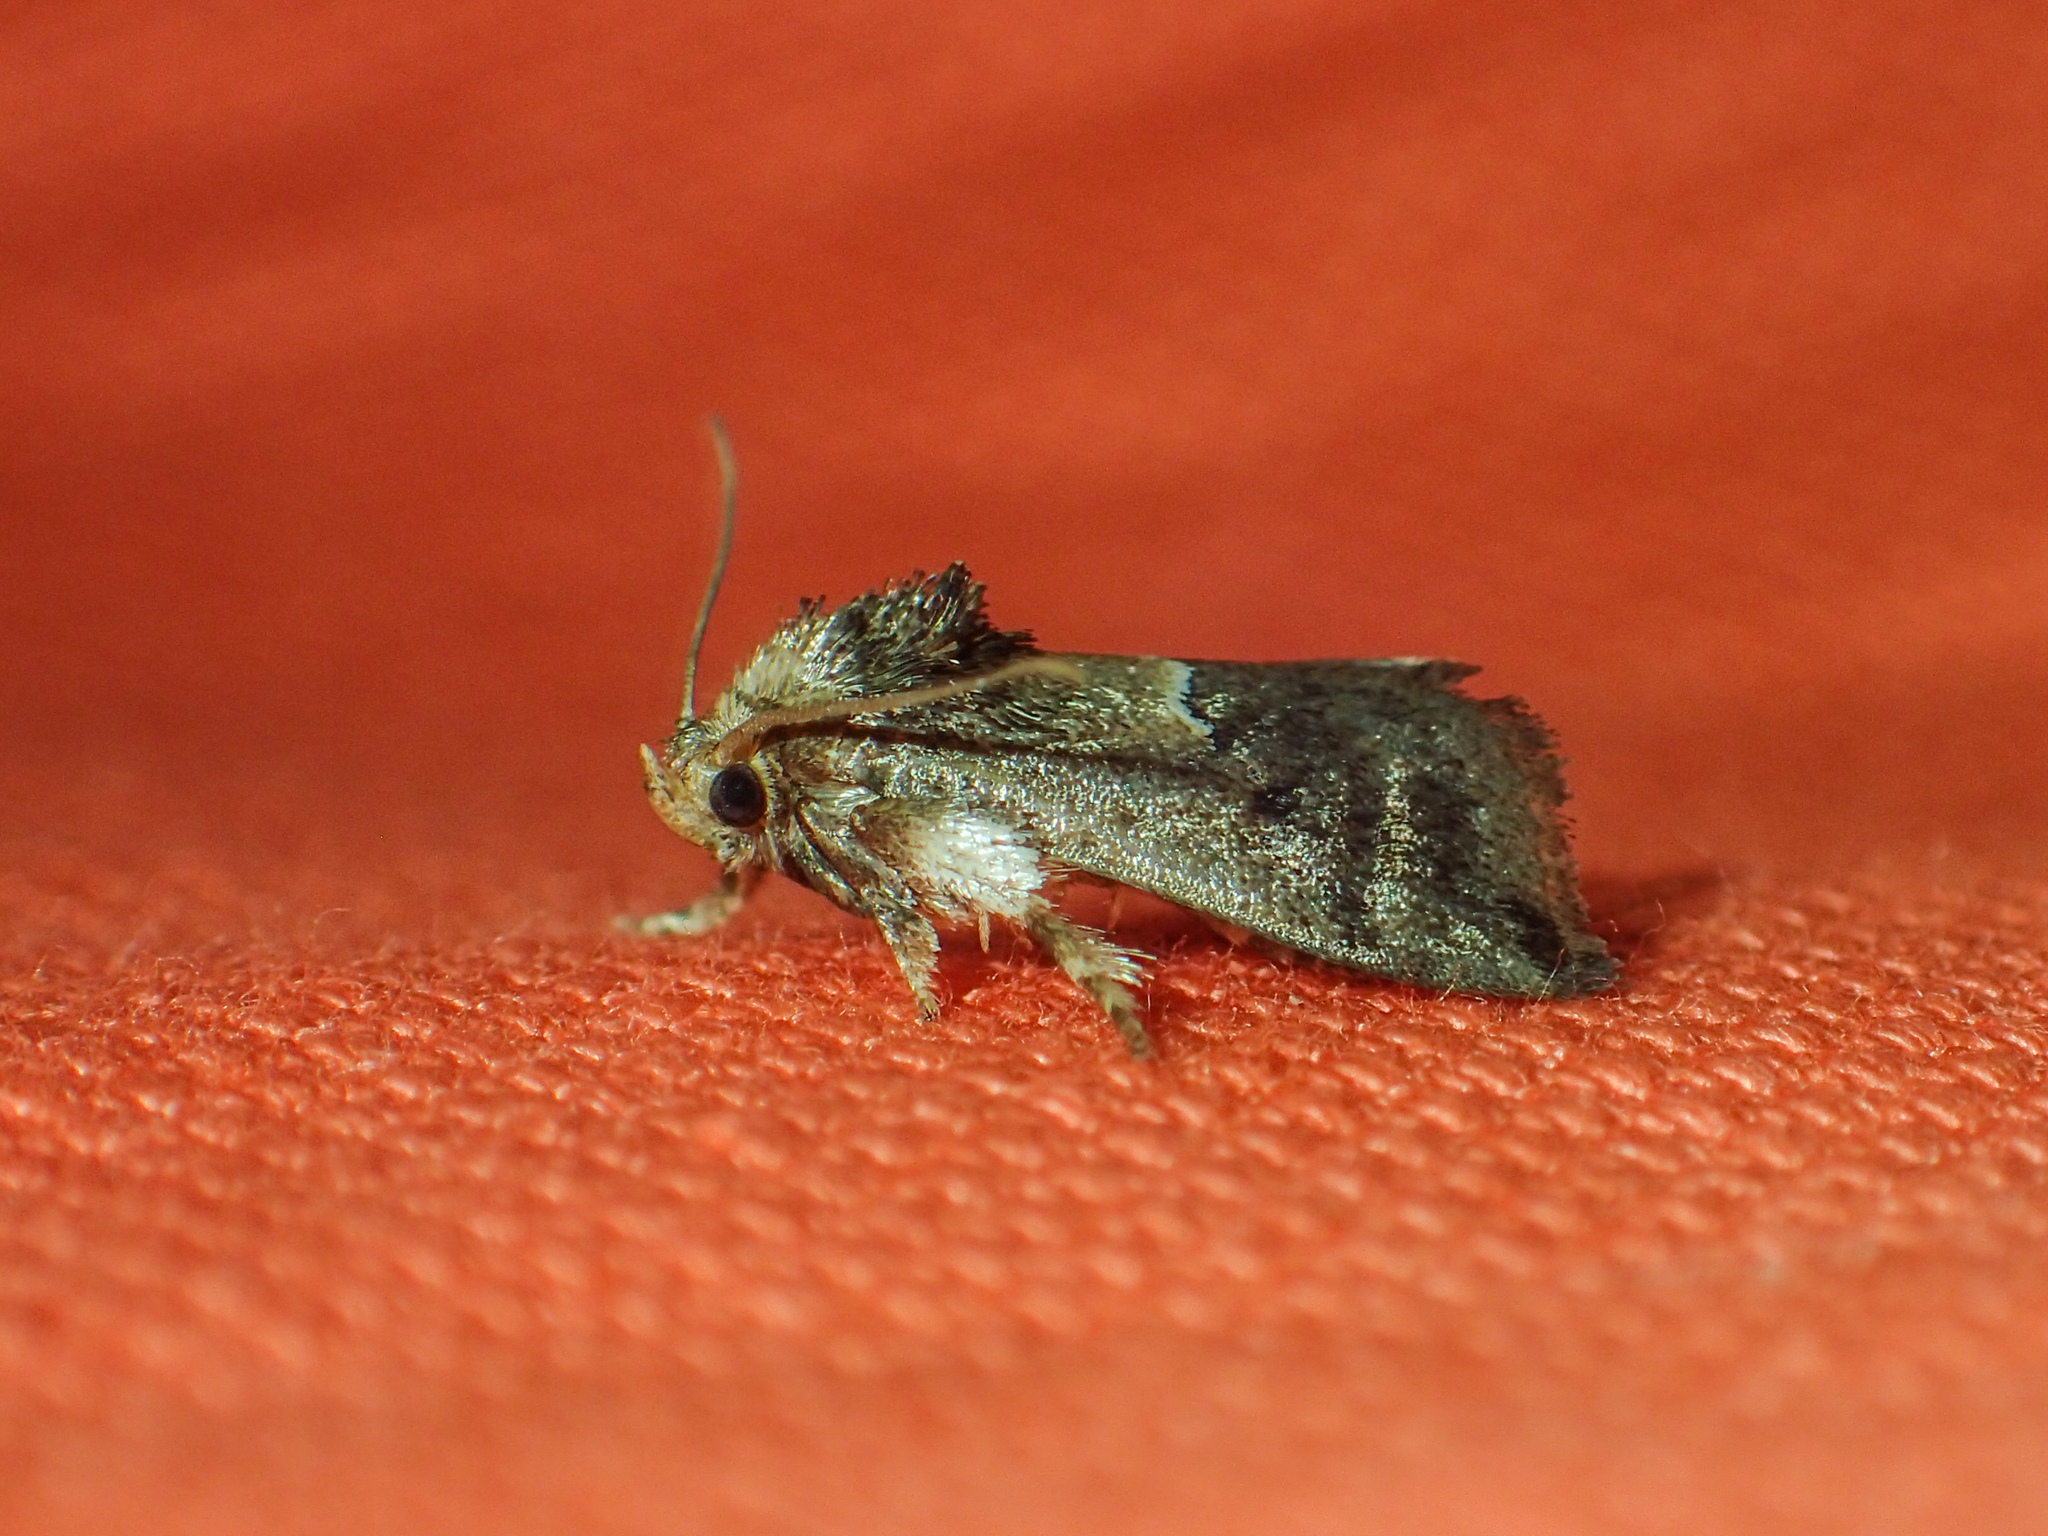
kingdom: Animalia
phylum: Arthropoda
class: Insecta
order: Lepidoptera
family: Limacodidae
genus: Trichogyia
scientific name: Trichogyia semifascia
